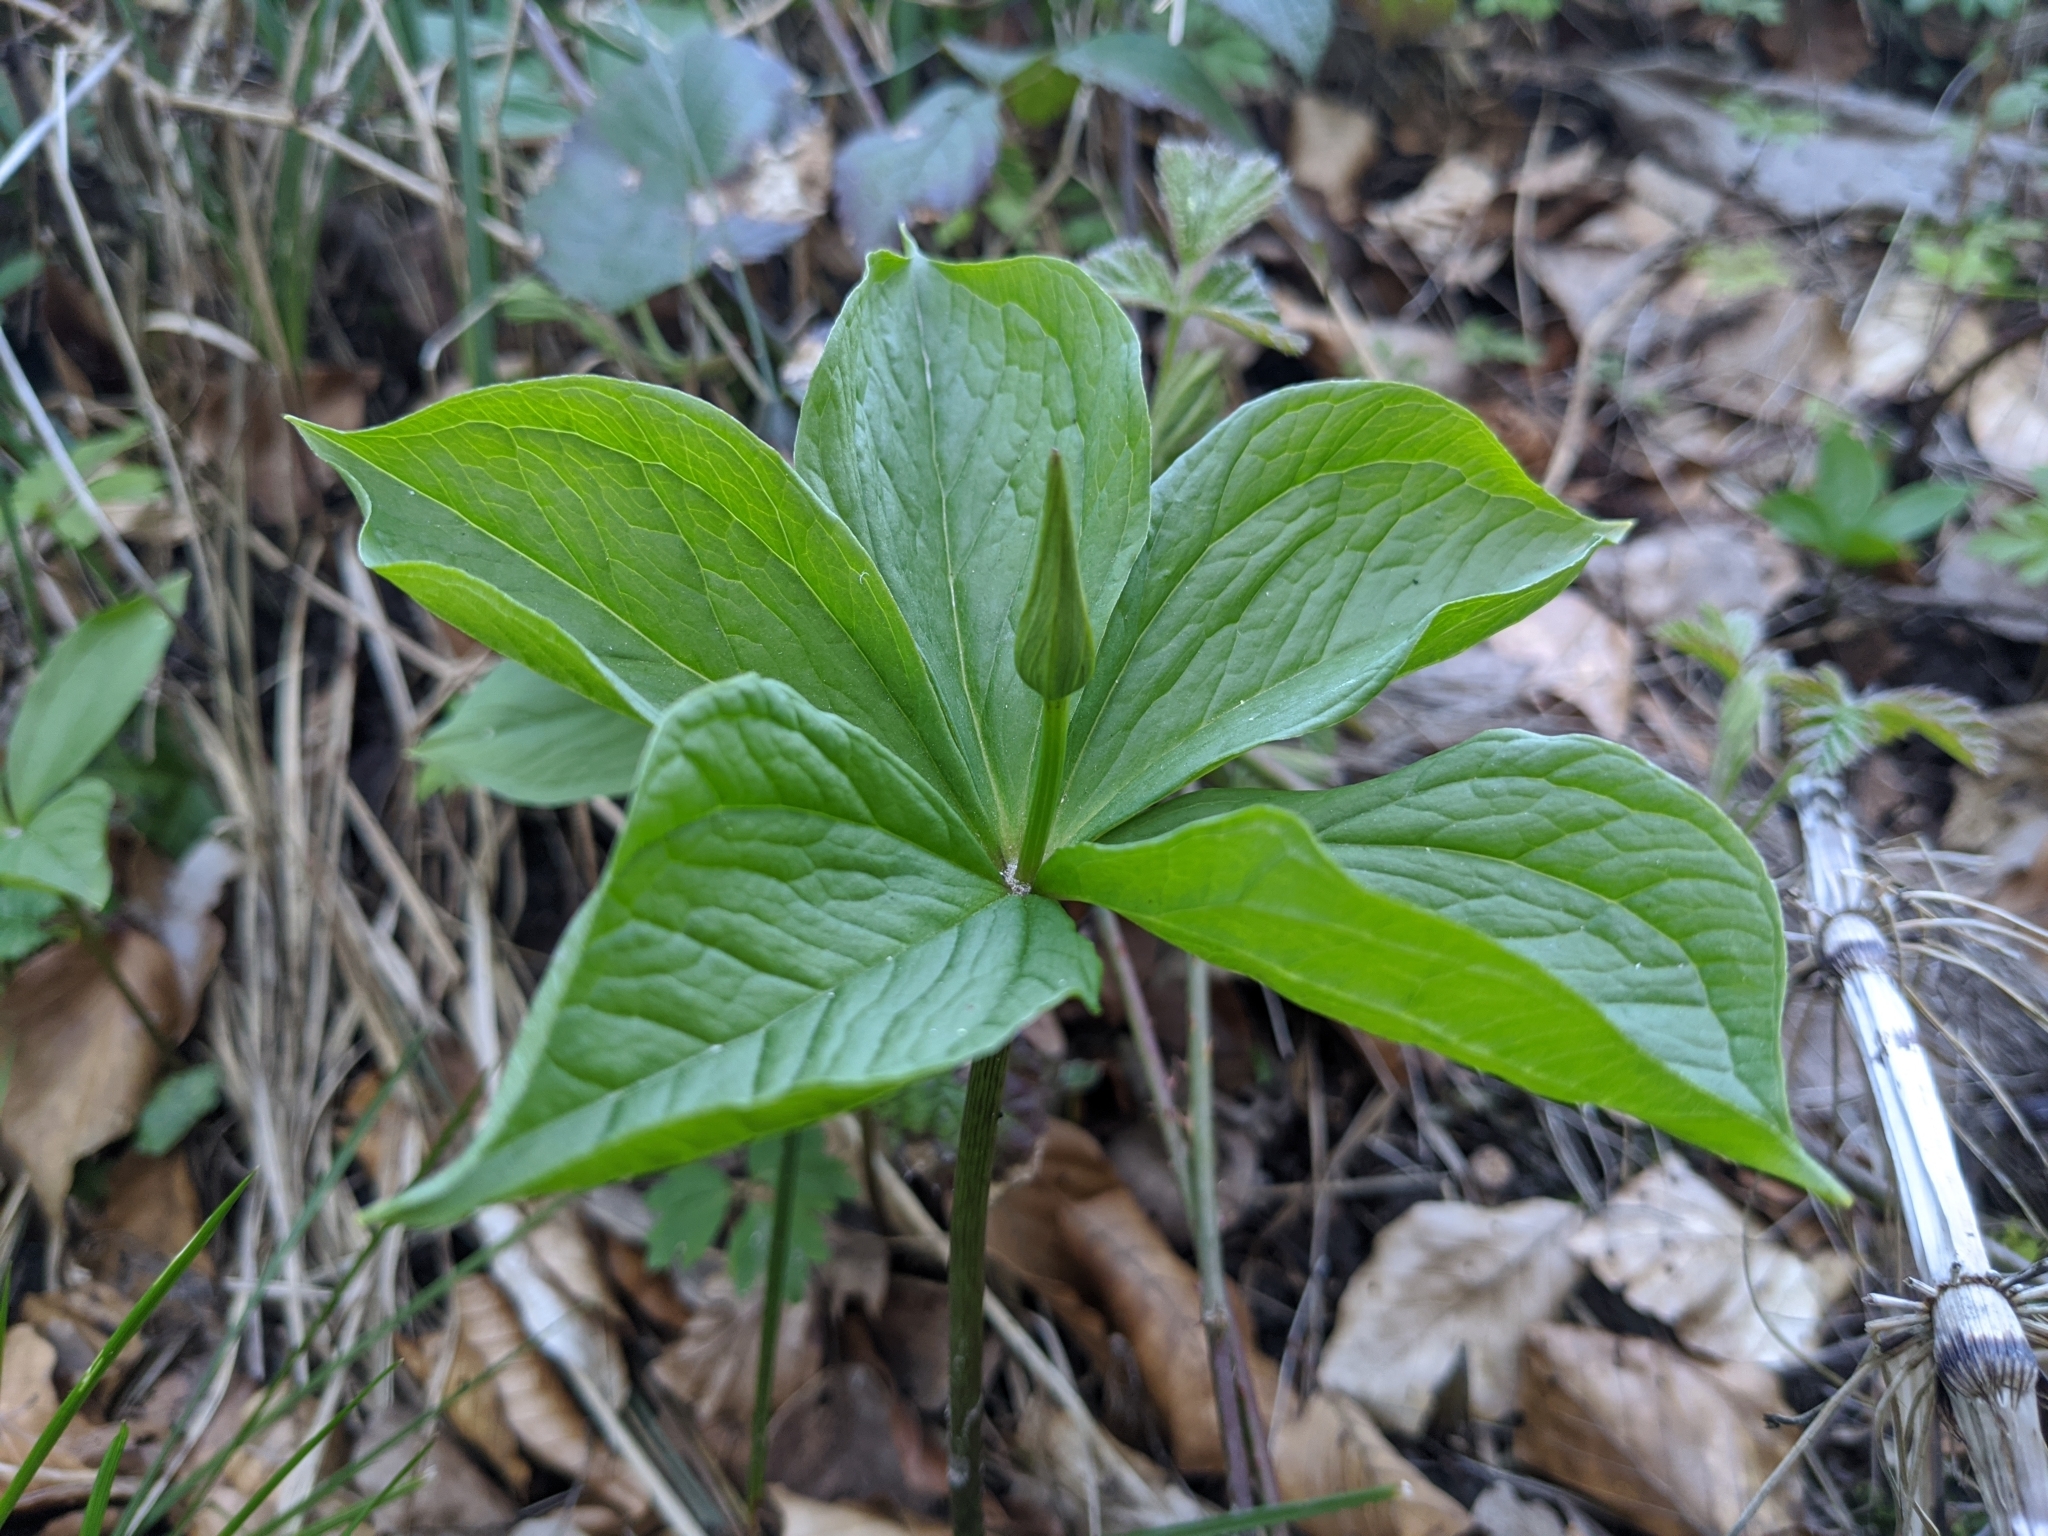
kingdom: Plantae
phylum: Tracheophyta
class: Liliopsida
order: Liliales
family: Melanthiaceae
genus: Paris
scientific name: Paris quadrifolia
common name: Herb-paris
